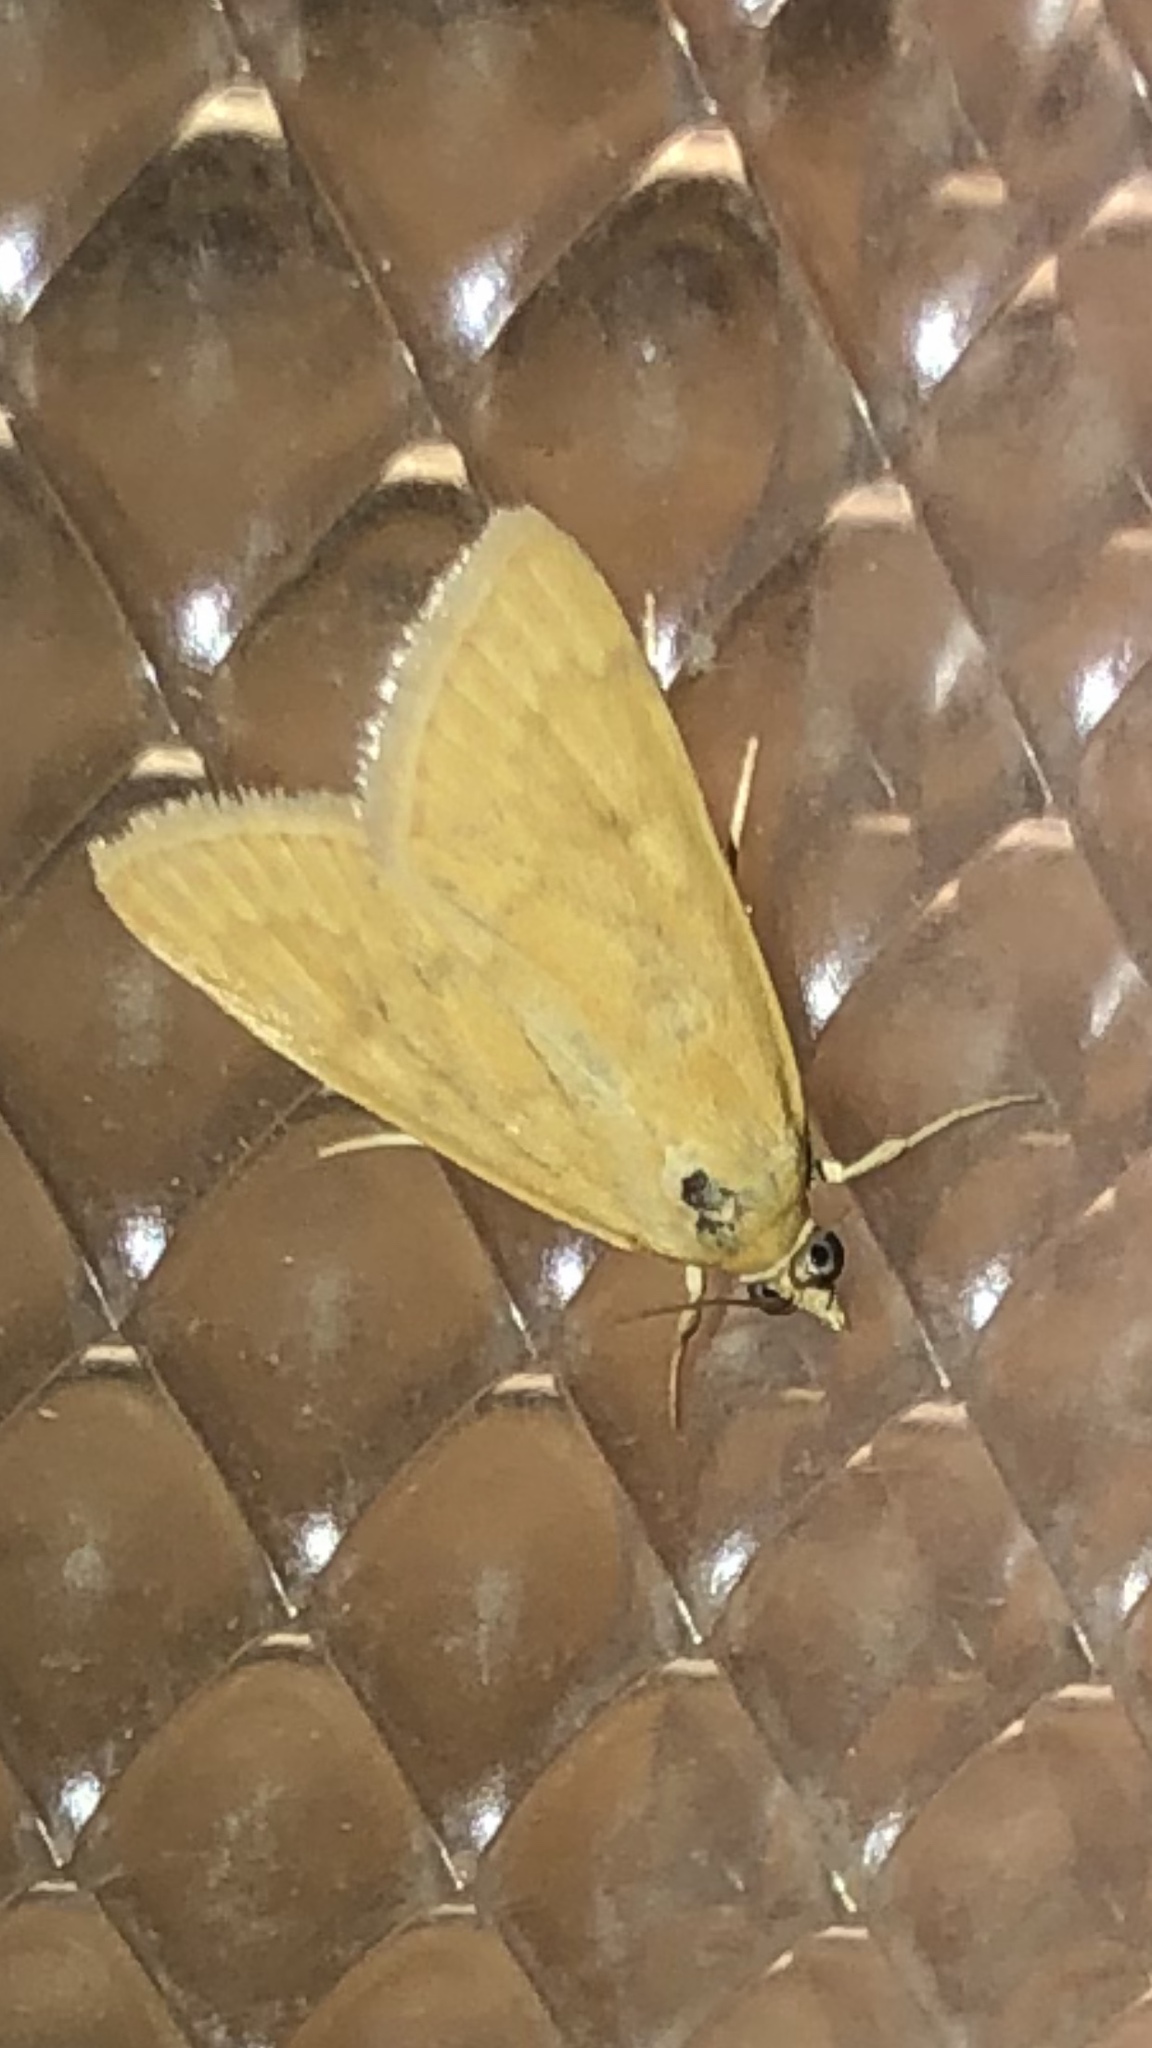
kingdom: Animalia
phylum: Arthropoda
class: Insecta
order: Lepidoptera
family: Crambidae
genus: Achyra
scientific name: Achyra rantalis
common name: Garden webworm
